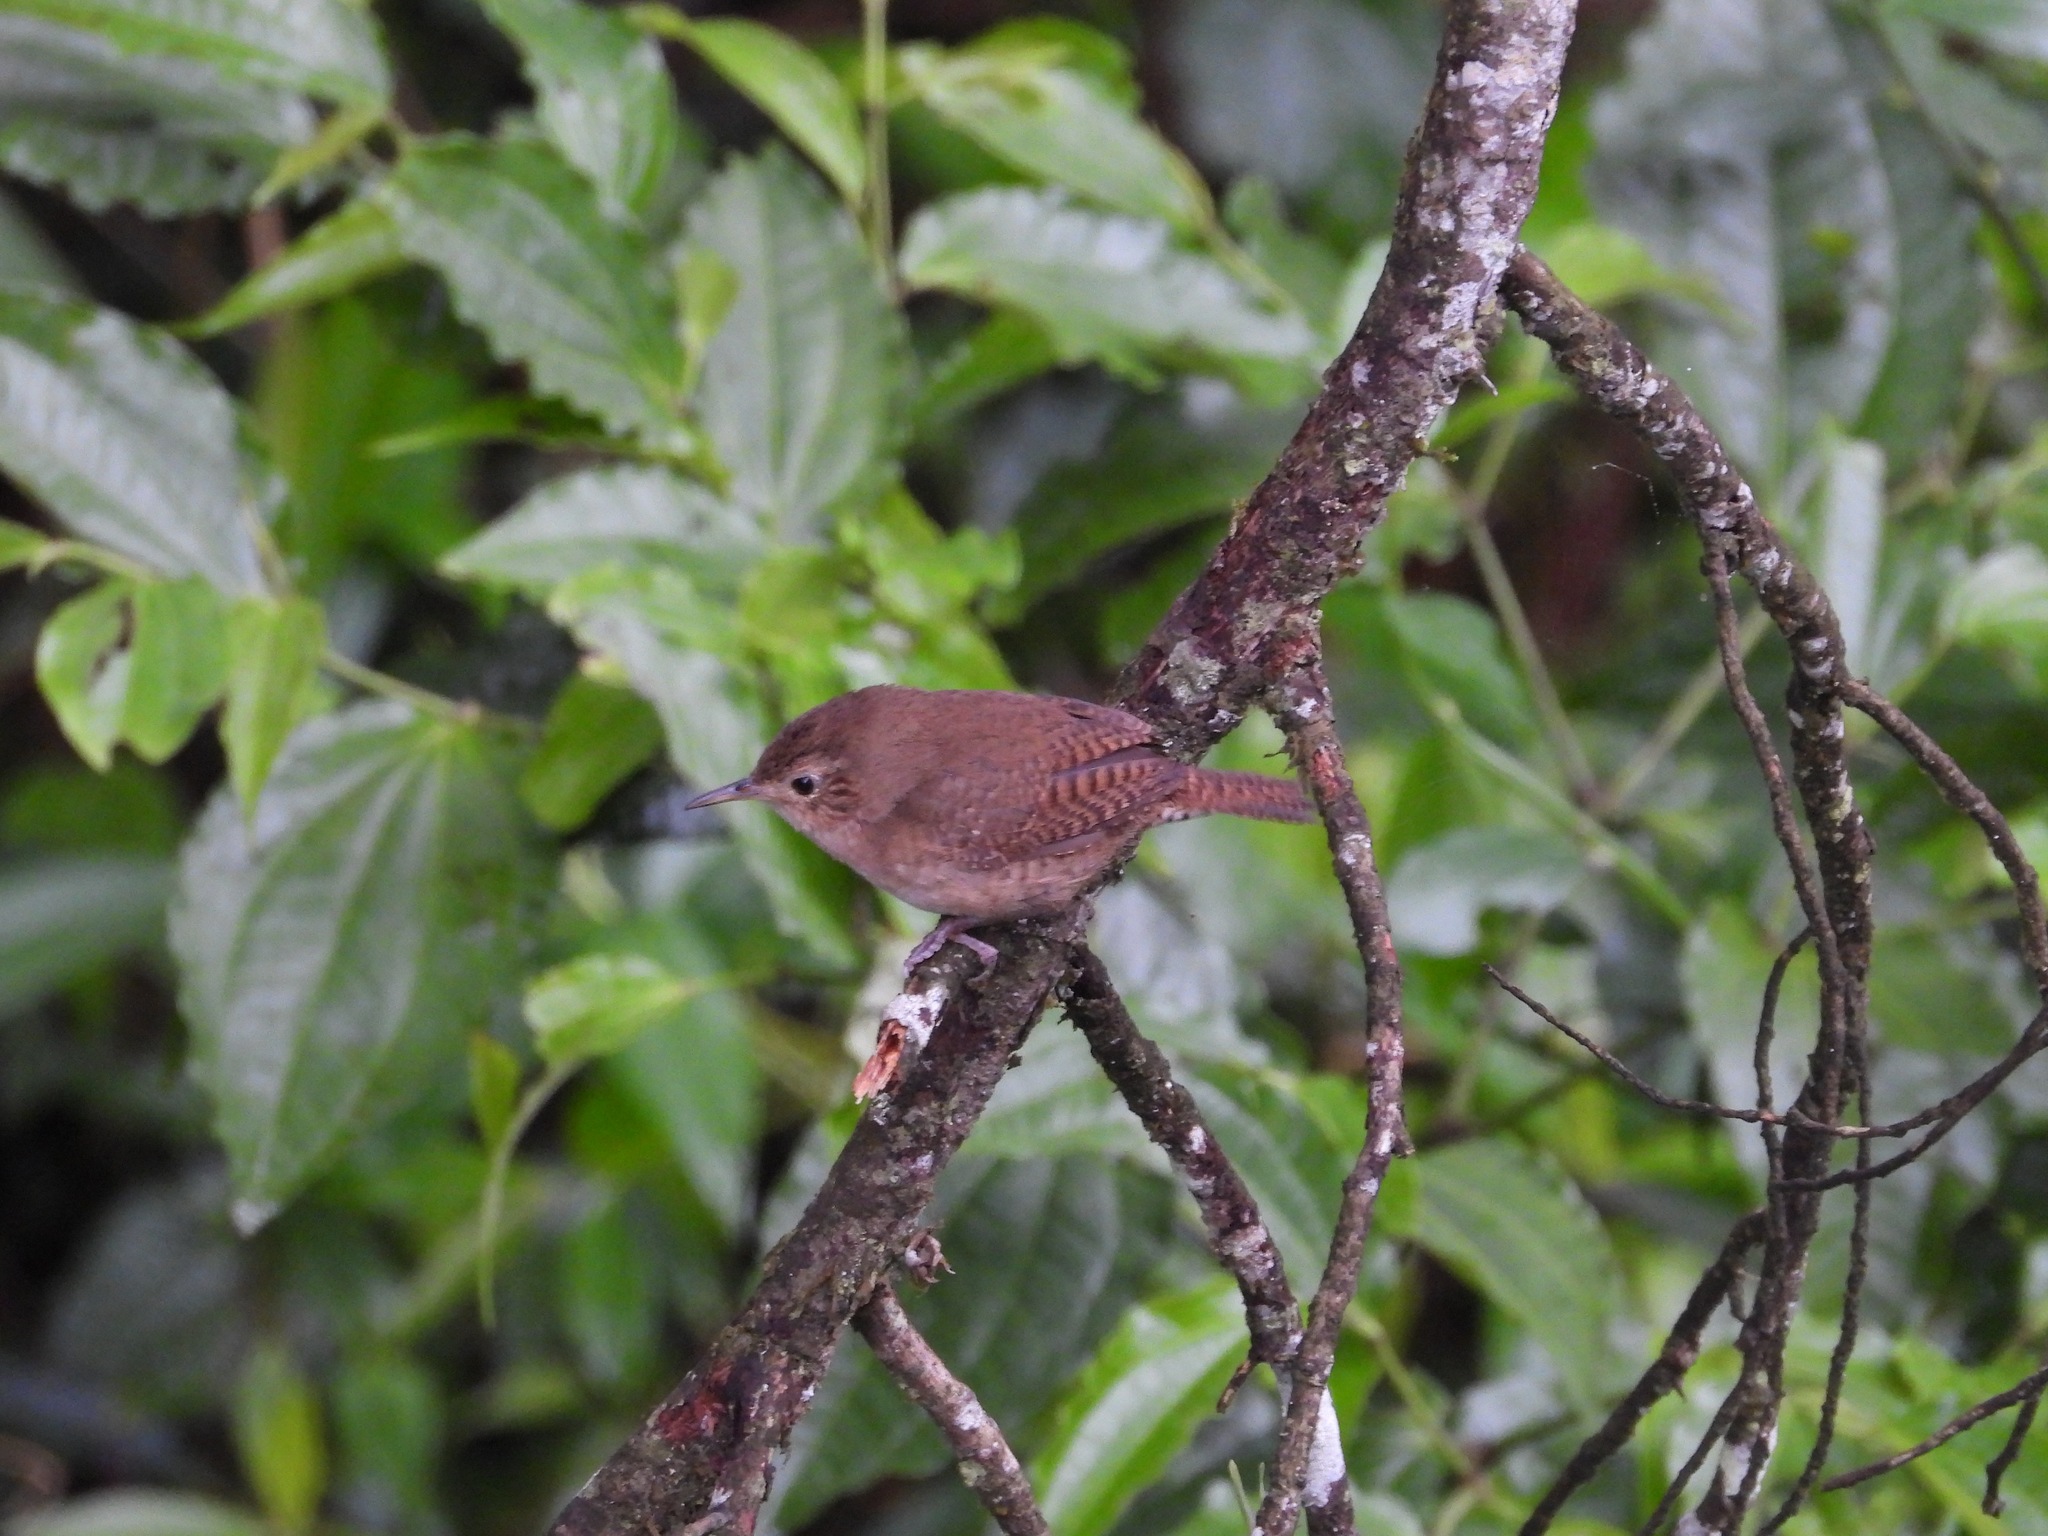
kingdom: Animalia
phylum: Chordata
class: Aves
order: Passeriformes
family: Troglodytidae
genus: Troglodytes
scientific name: Troglodytes aedon
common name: House wren
